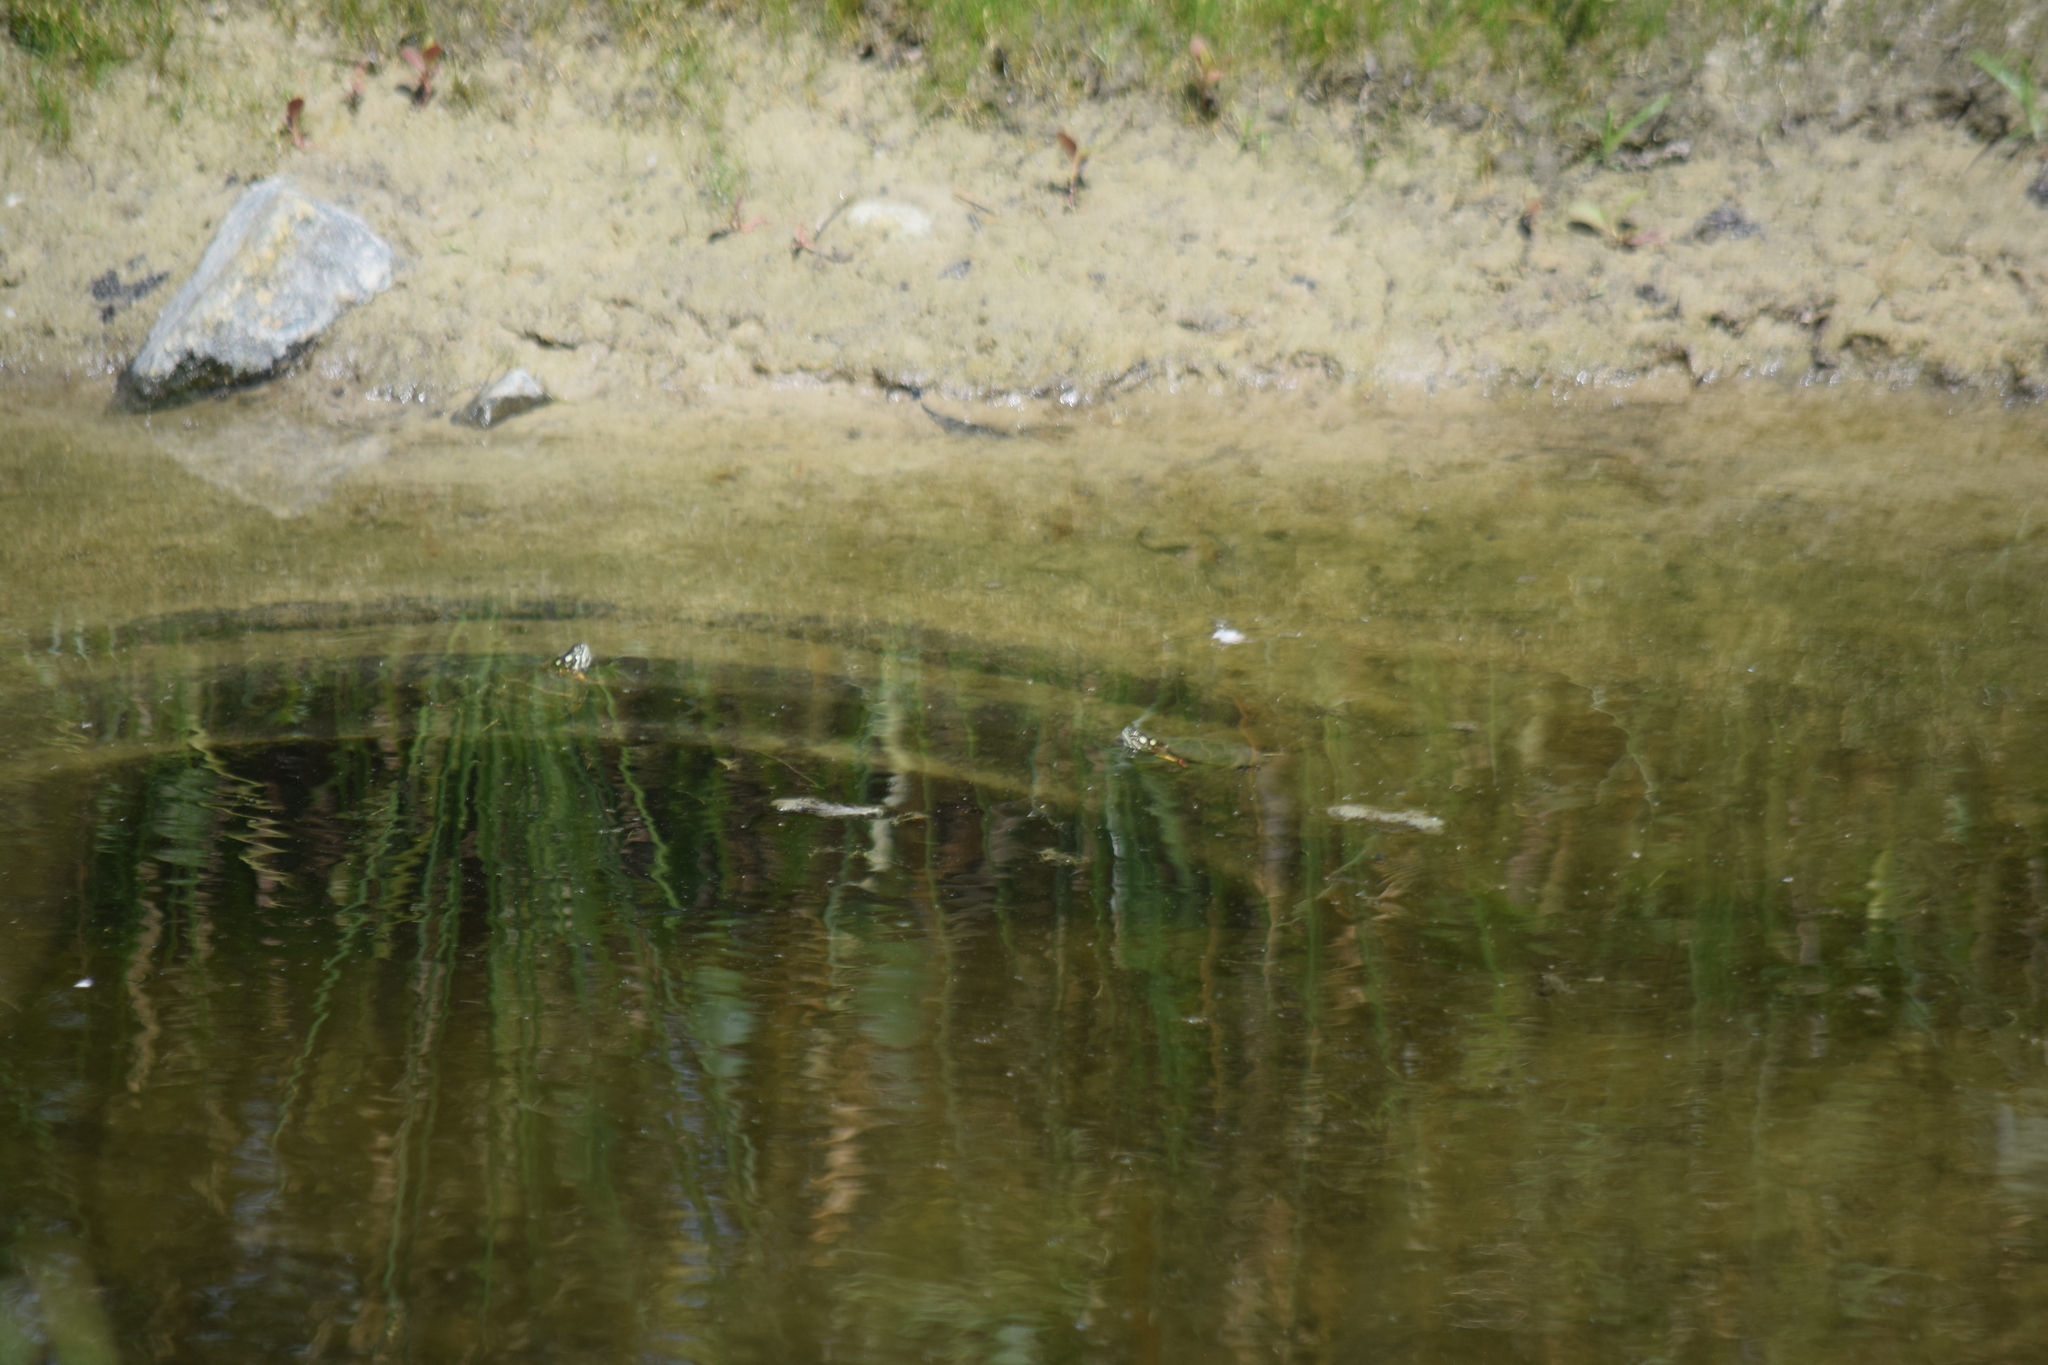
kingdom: Animalia
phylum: Chordata
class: Testudines
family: Emydidae
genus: Chrysemys
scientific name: Chrysemys picta
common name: Painted turtle
